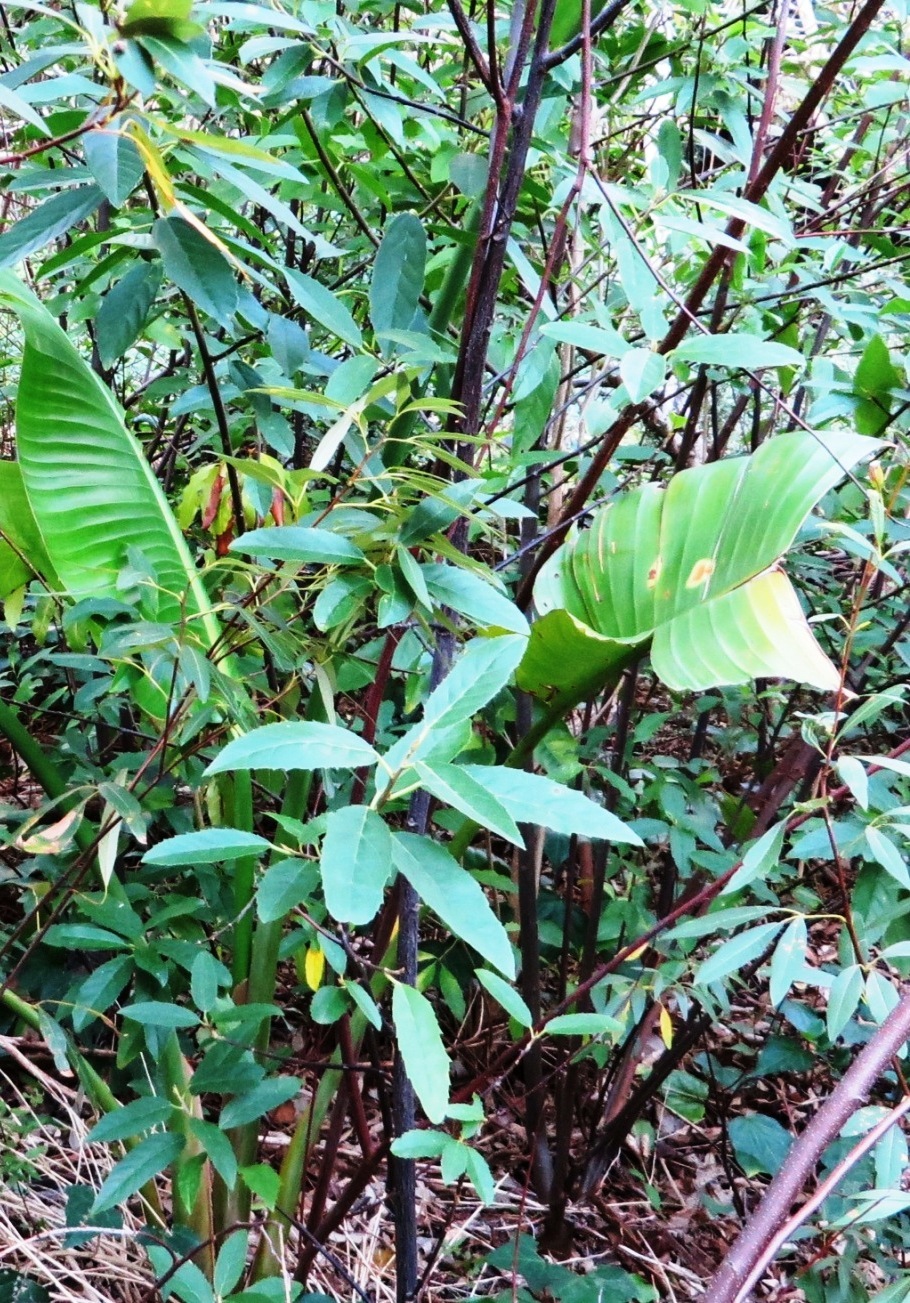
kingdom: Plantae
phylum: Tracheophyta
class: Magnoliopsida
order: Malpighiales
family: Achariaceae
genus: Kiggelaria
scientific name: Kiggelaria africana
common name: Wild peach
